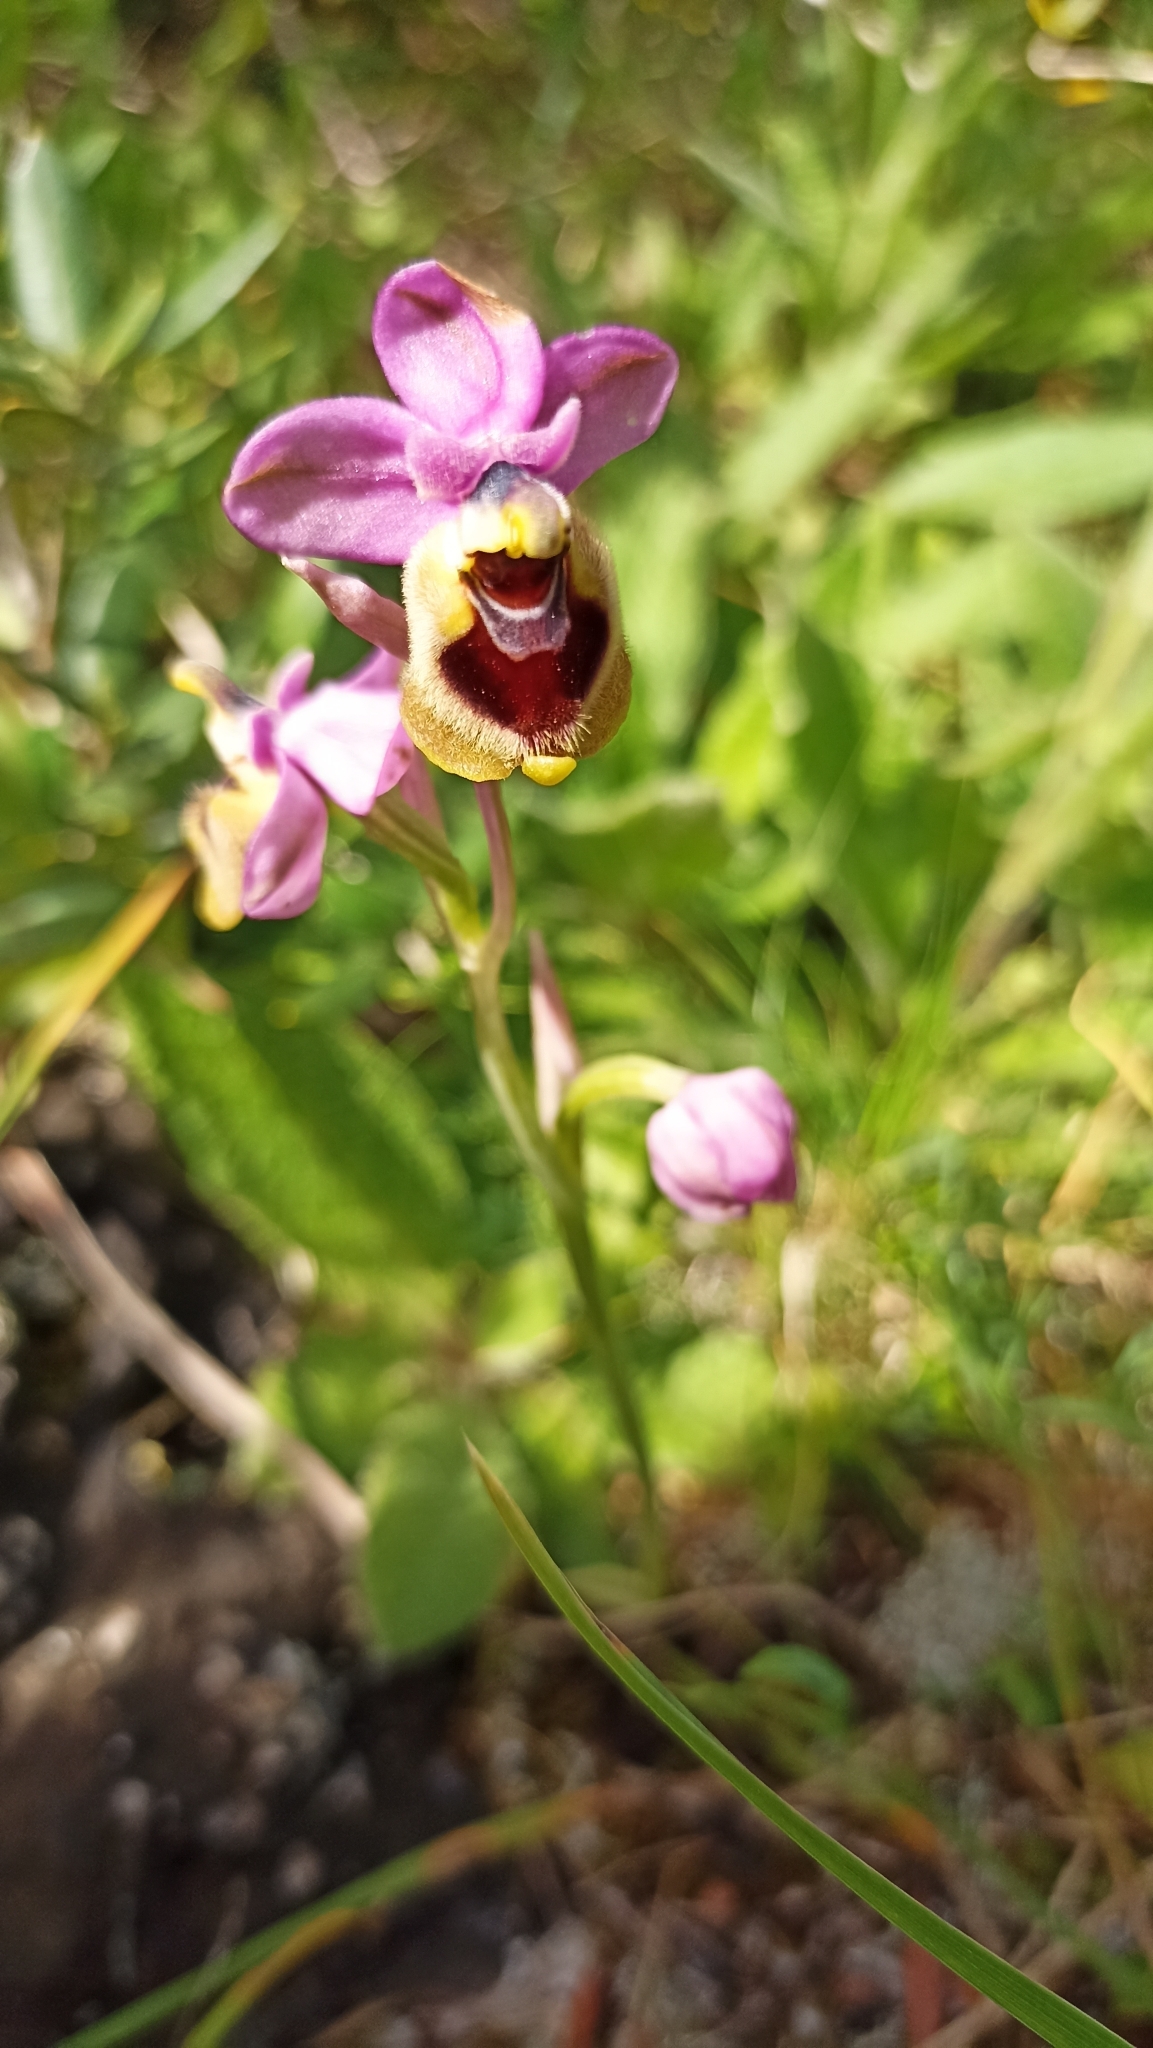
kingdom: Plantae
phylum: Tracheophyta
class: Liliopsida
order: Asparagales
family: Orchidaceae
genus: Ophrys
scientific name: Ophrys tenthredinifera
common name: Sawfly orchid
